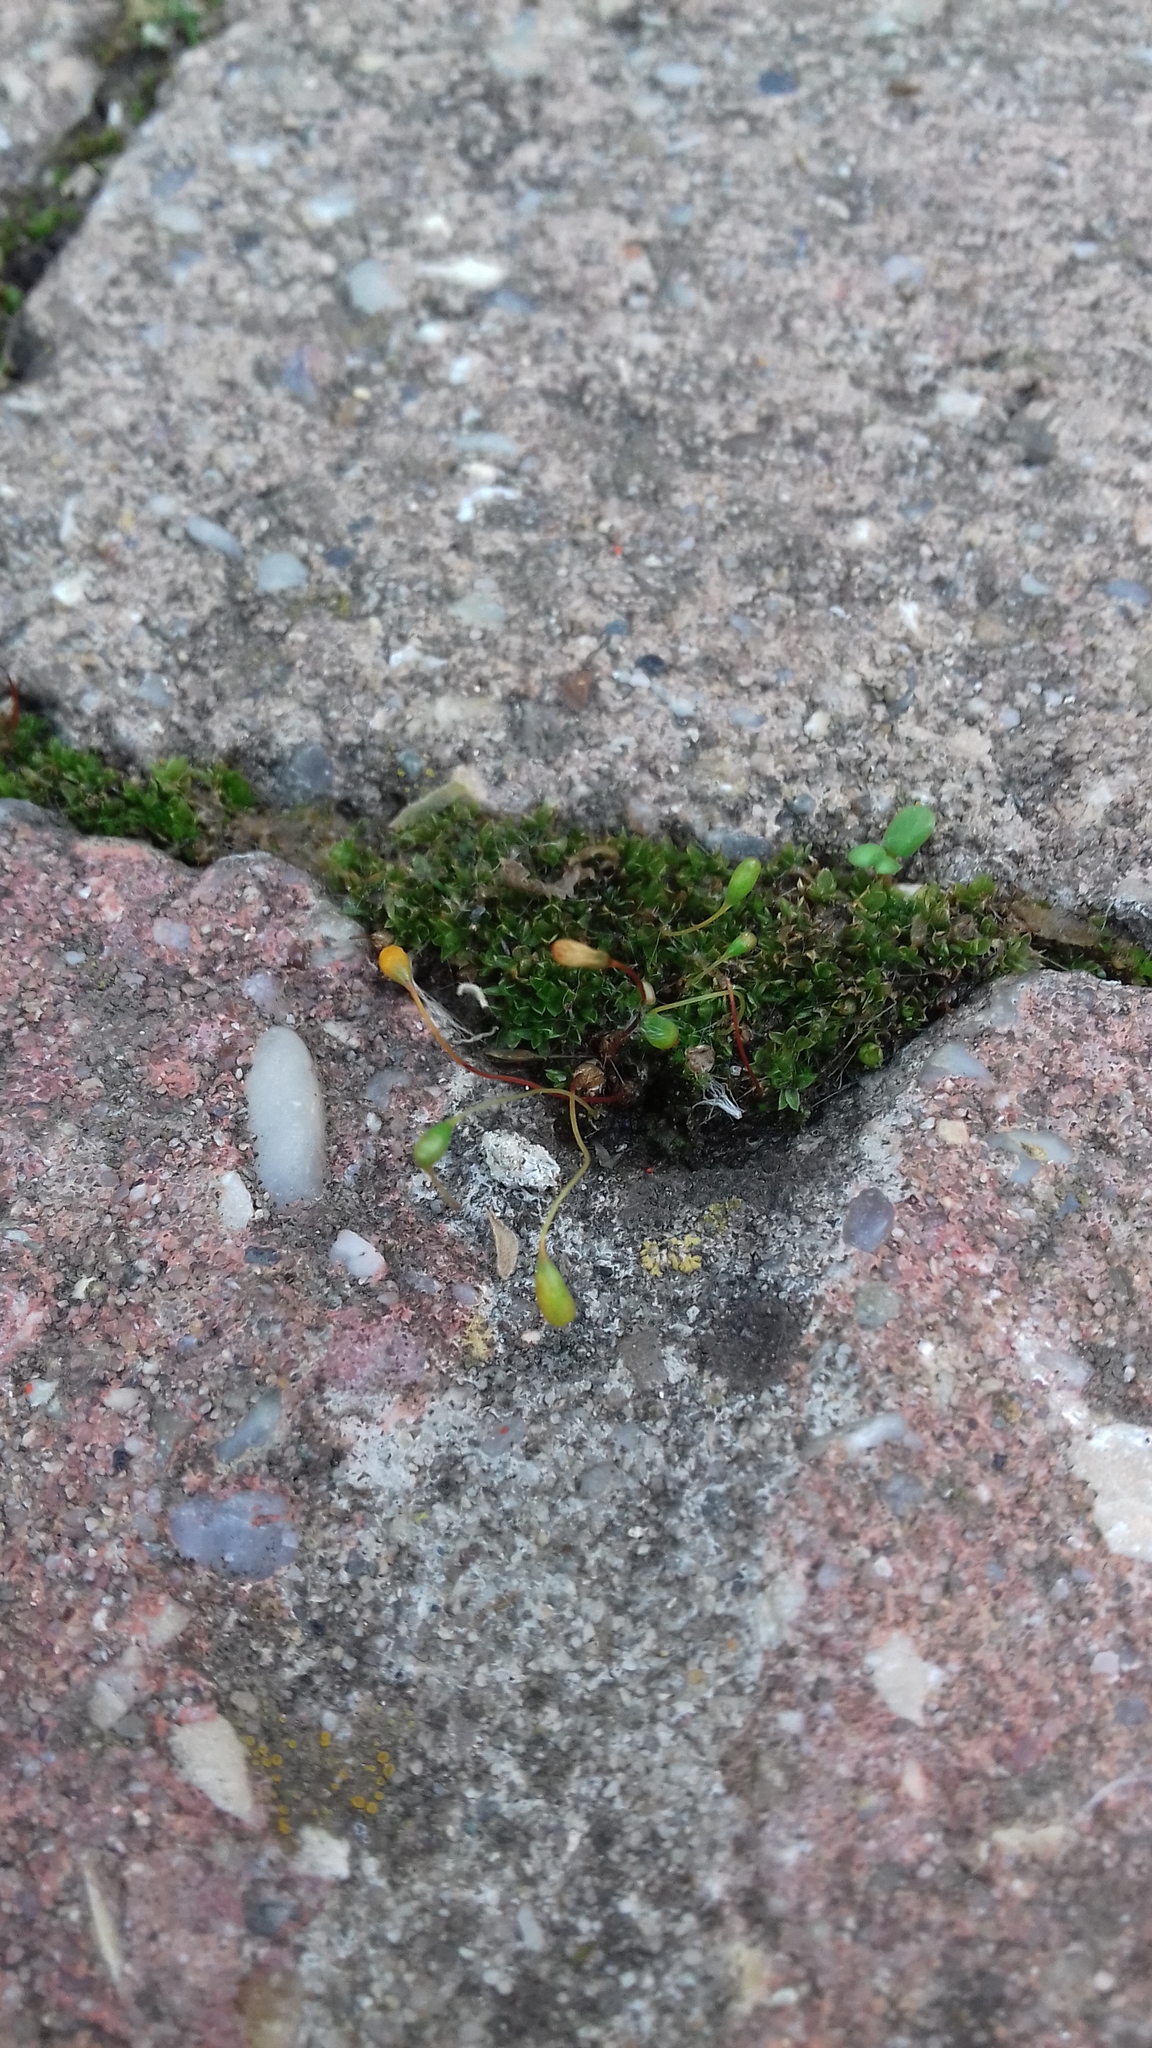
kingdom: Plantae
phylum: Bryophyta
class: Bryopsida
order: Funariales
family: Funariaceae
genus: Funaria
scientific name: Funaria hygrometrica
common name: Common cord moss
